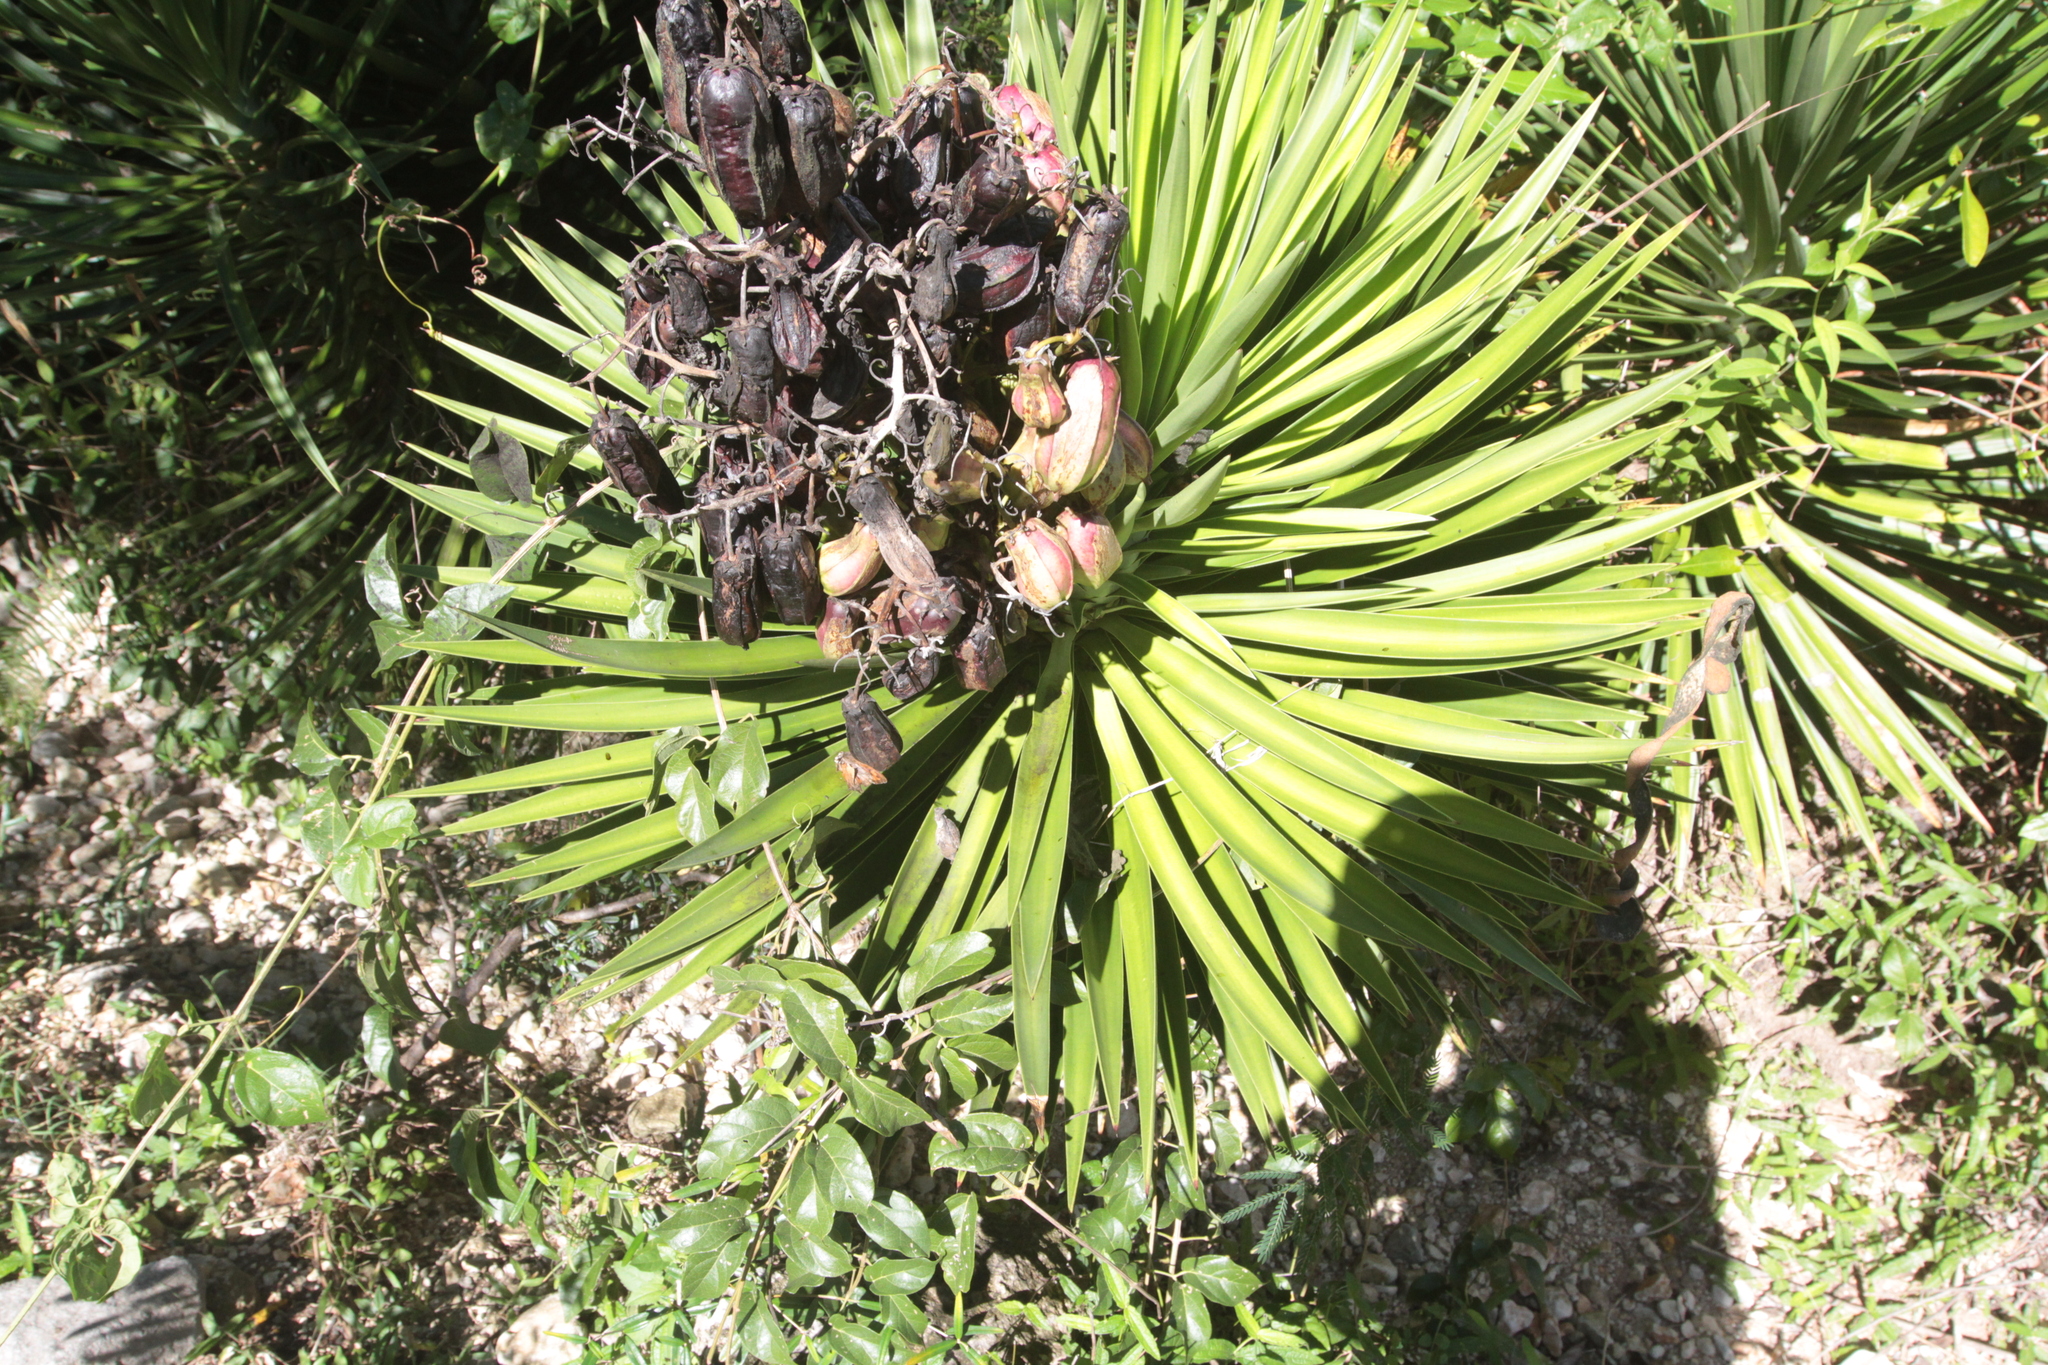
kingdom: Plantae
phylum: Tracheophyta
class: Liliopsida
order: Asparagales
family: Asparagaceae
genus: Yucca
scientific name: Yucca aloifolia
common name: Aloe yucca
